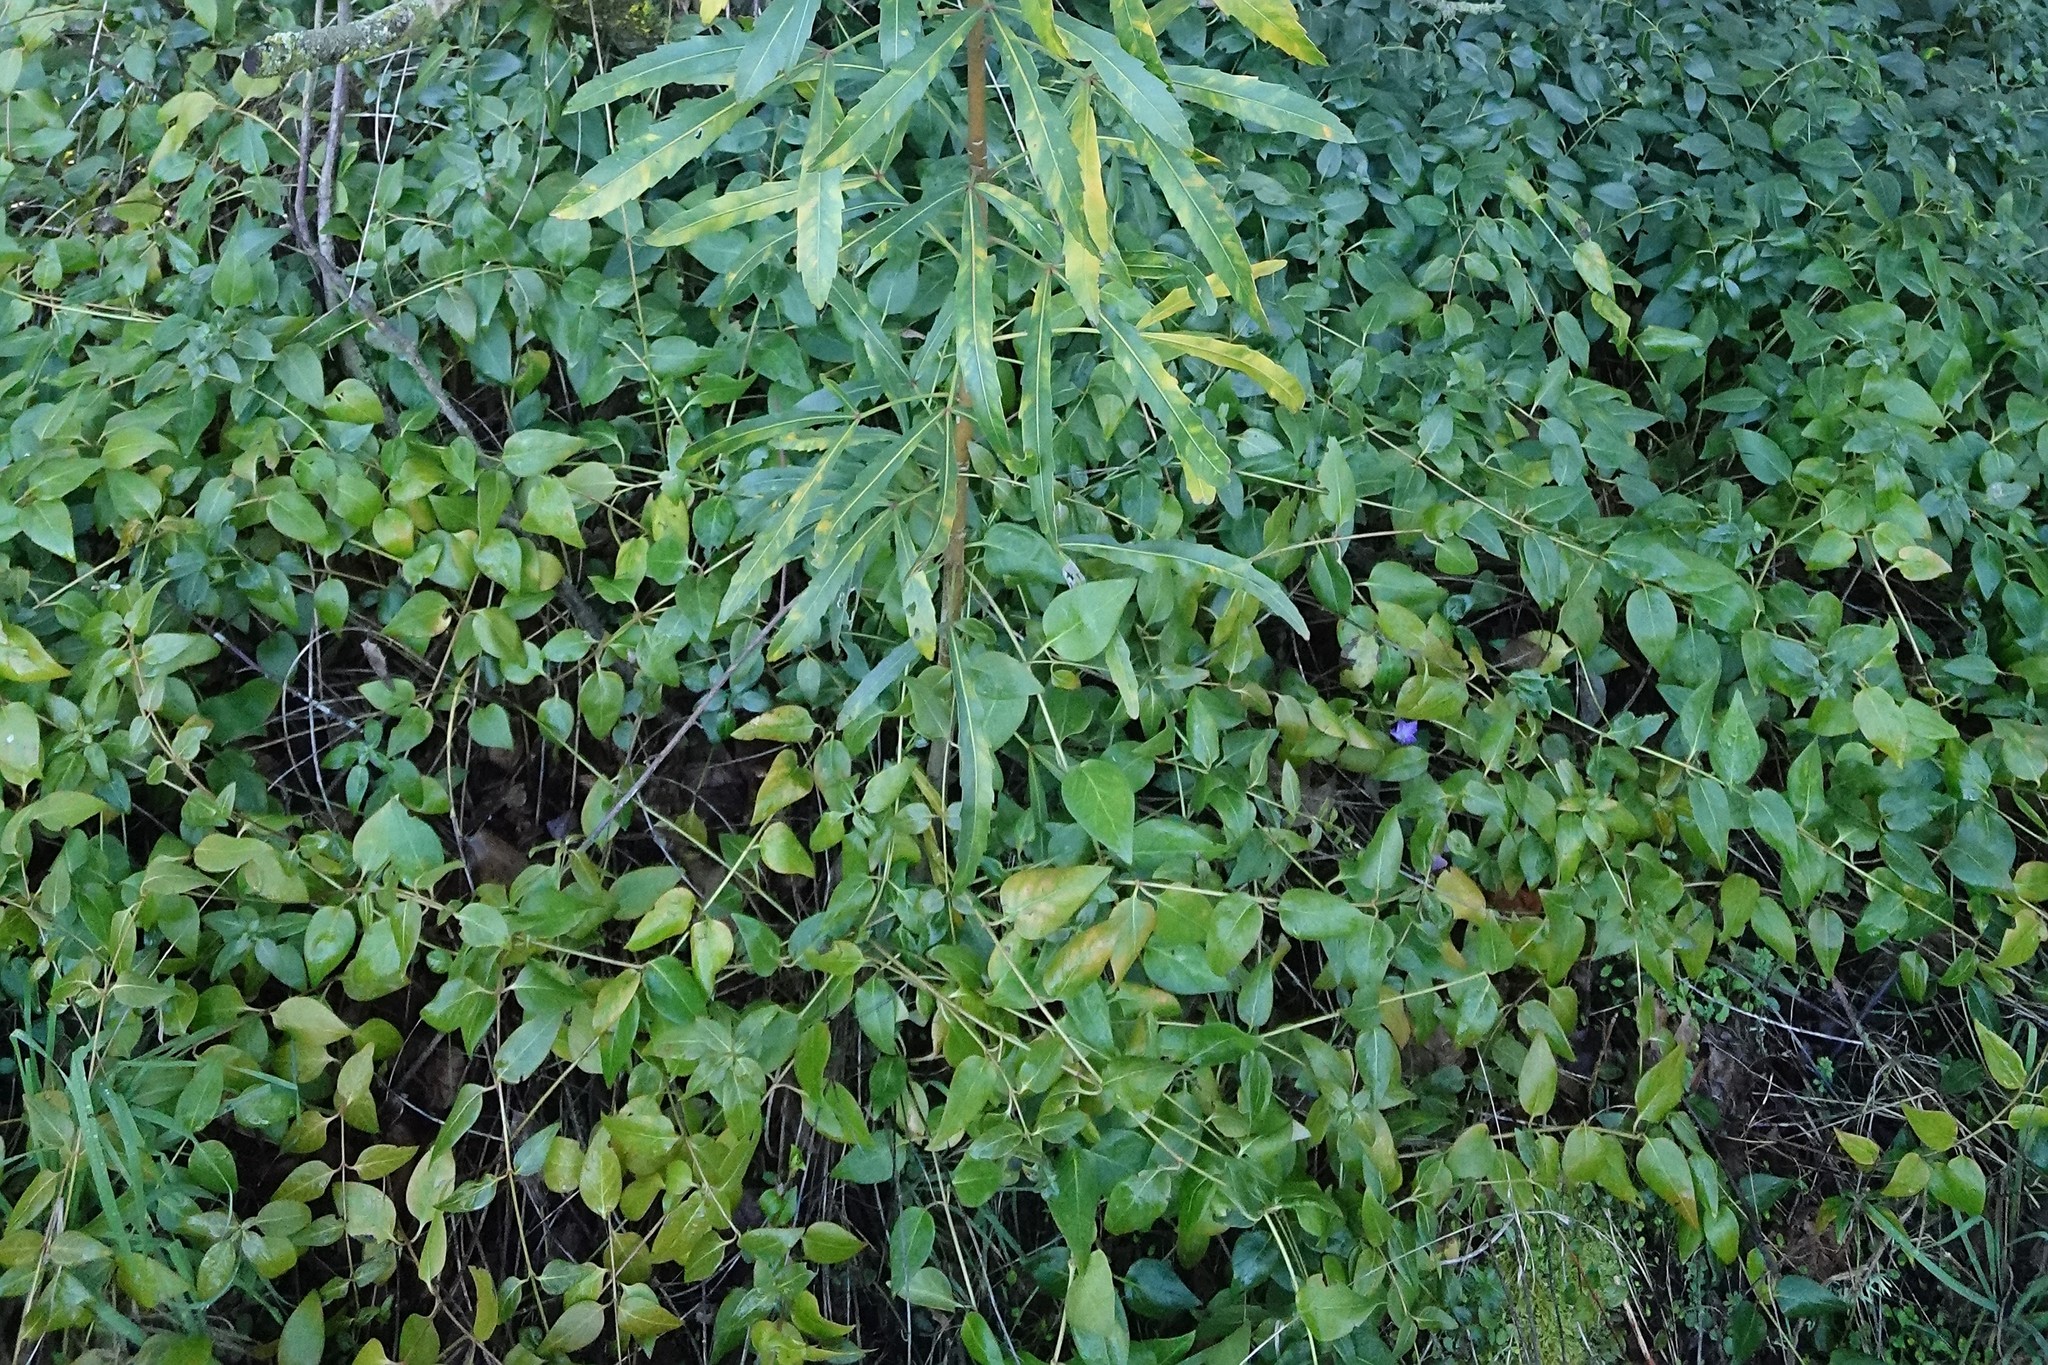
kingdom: Plantae
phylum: Tracheophyta
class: Magnoliopsida
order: Gentianales
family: Apocynaceae
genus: Vinca
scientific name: Vinca major
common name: Greater periwinkle
